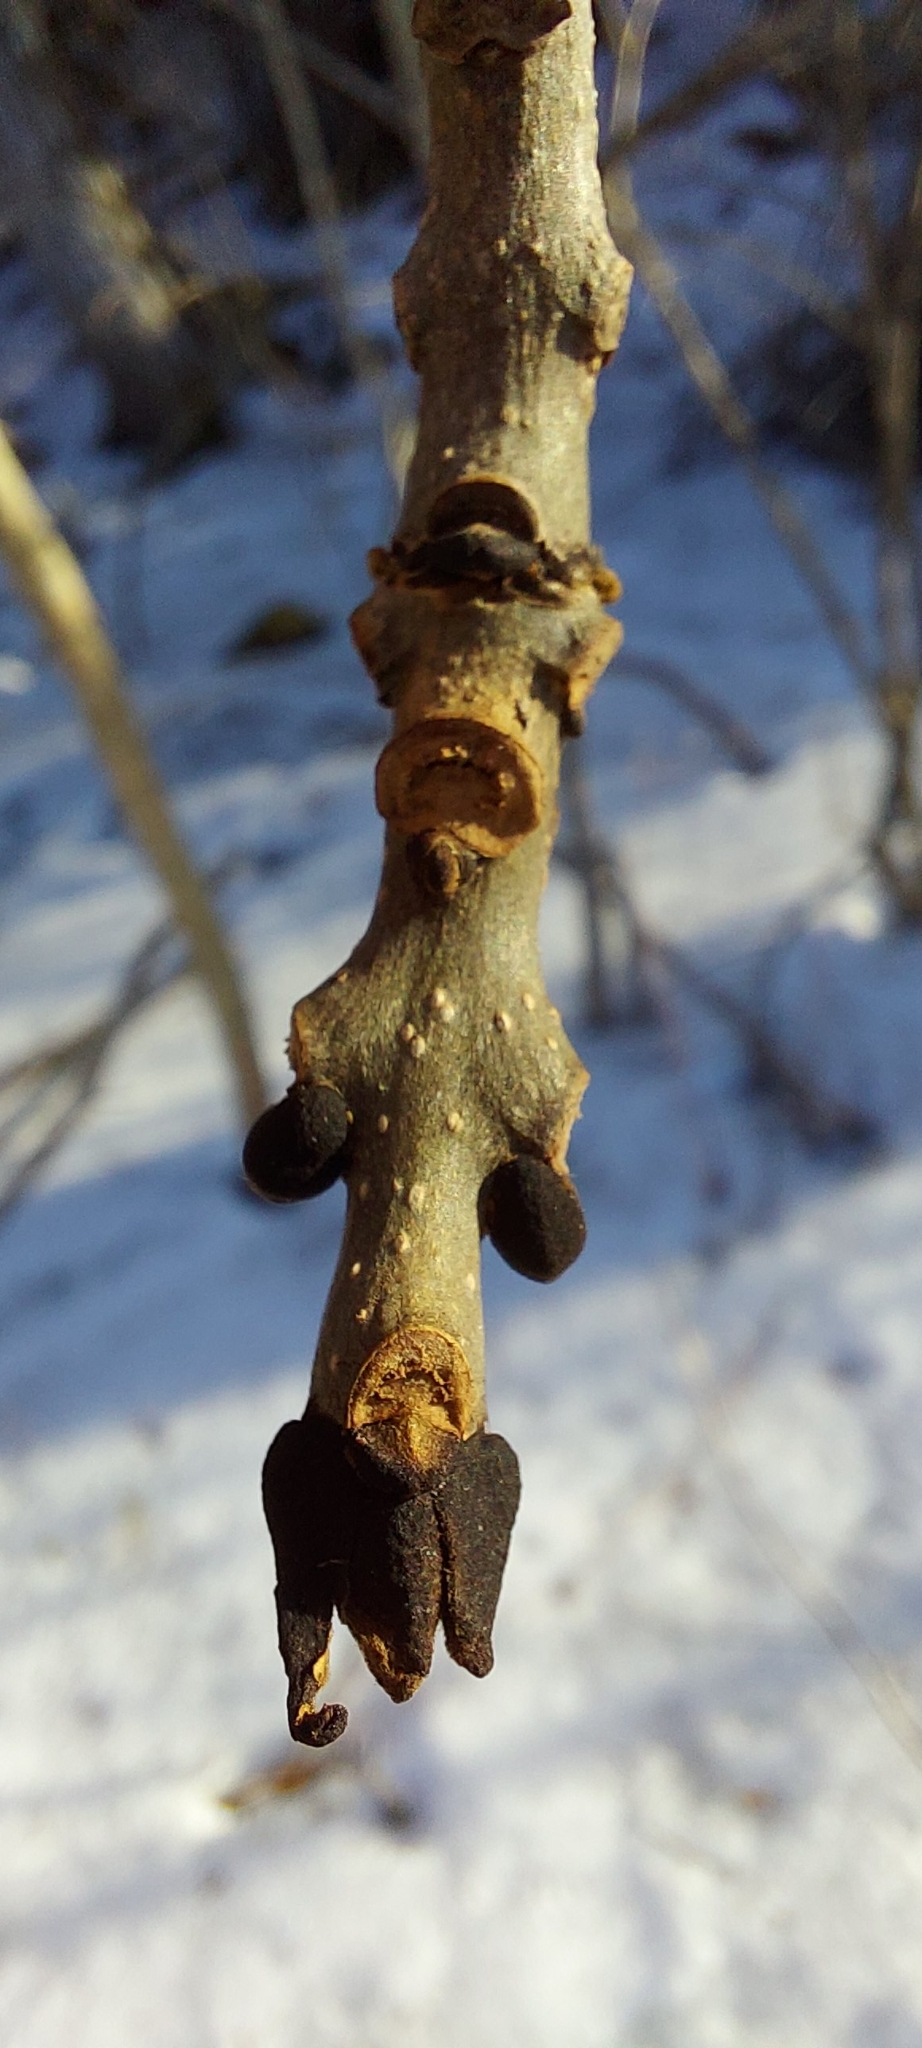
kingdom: Plantae
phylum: Tracheophyta
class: Magnoliopsida
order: Lamiales
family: Oleaceae
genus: Fraxinus
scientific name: Fraxinus excelsior
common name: European ash
